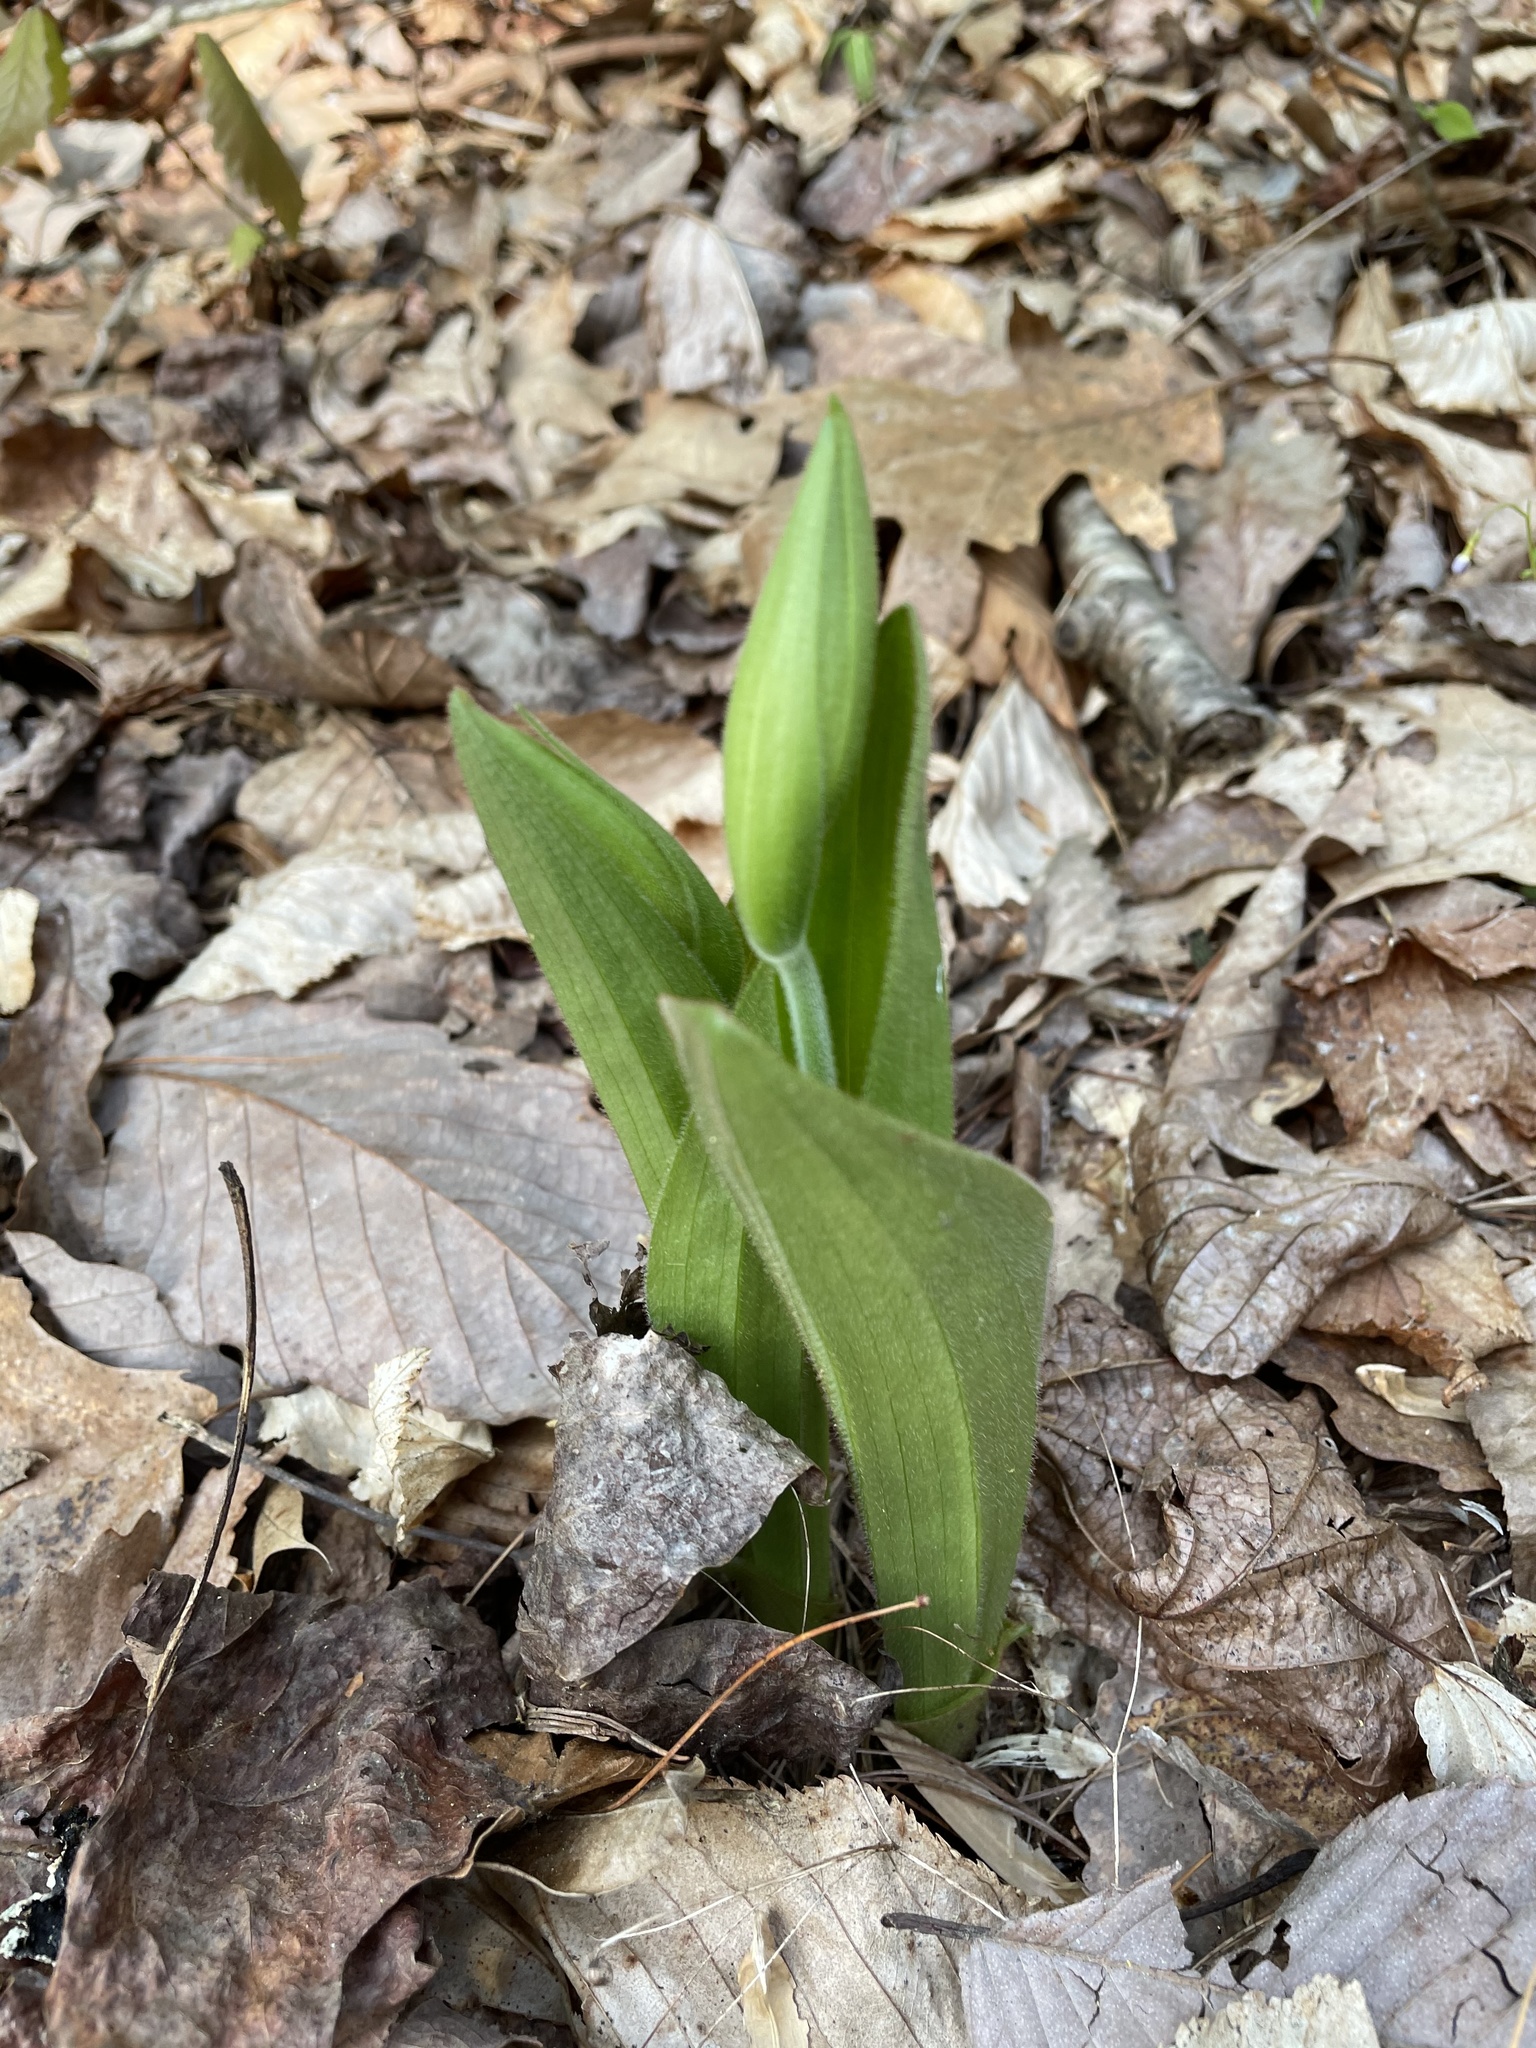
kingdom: Plantae
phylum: Tracheophyta
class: Liliopsida
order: Asparagales
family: Orchidaceae
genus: Cypripedium
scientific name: Cypripedium acaule
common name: Pink lady's-slipper
